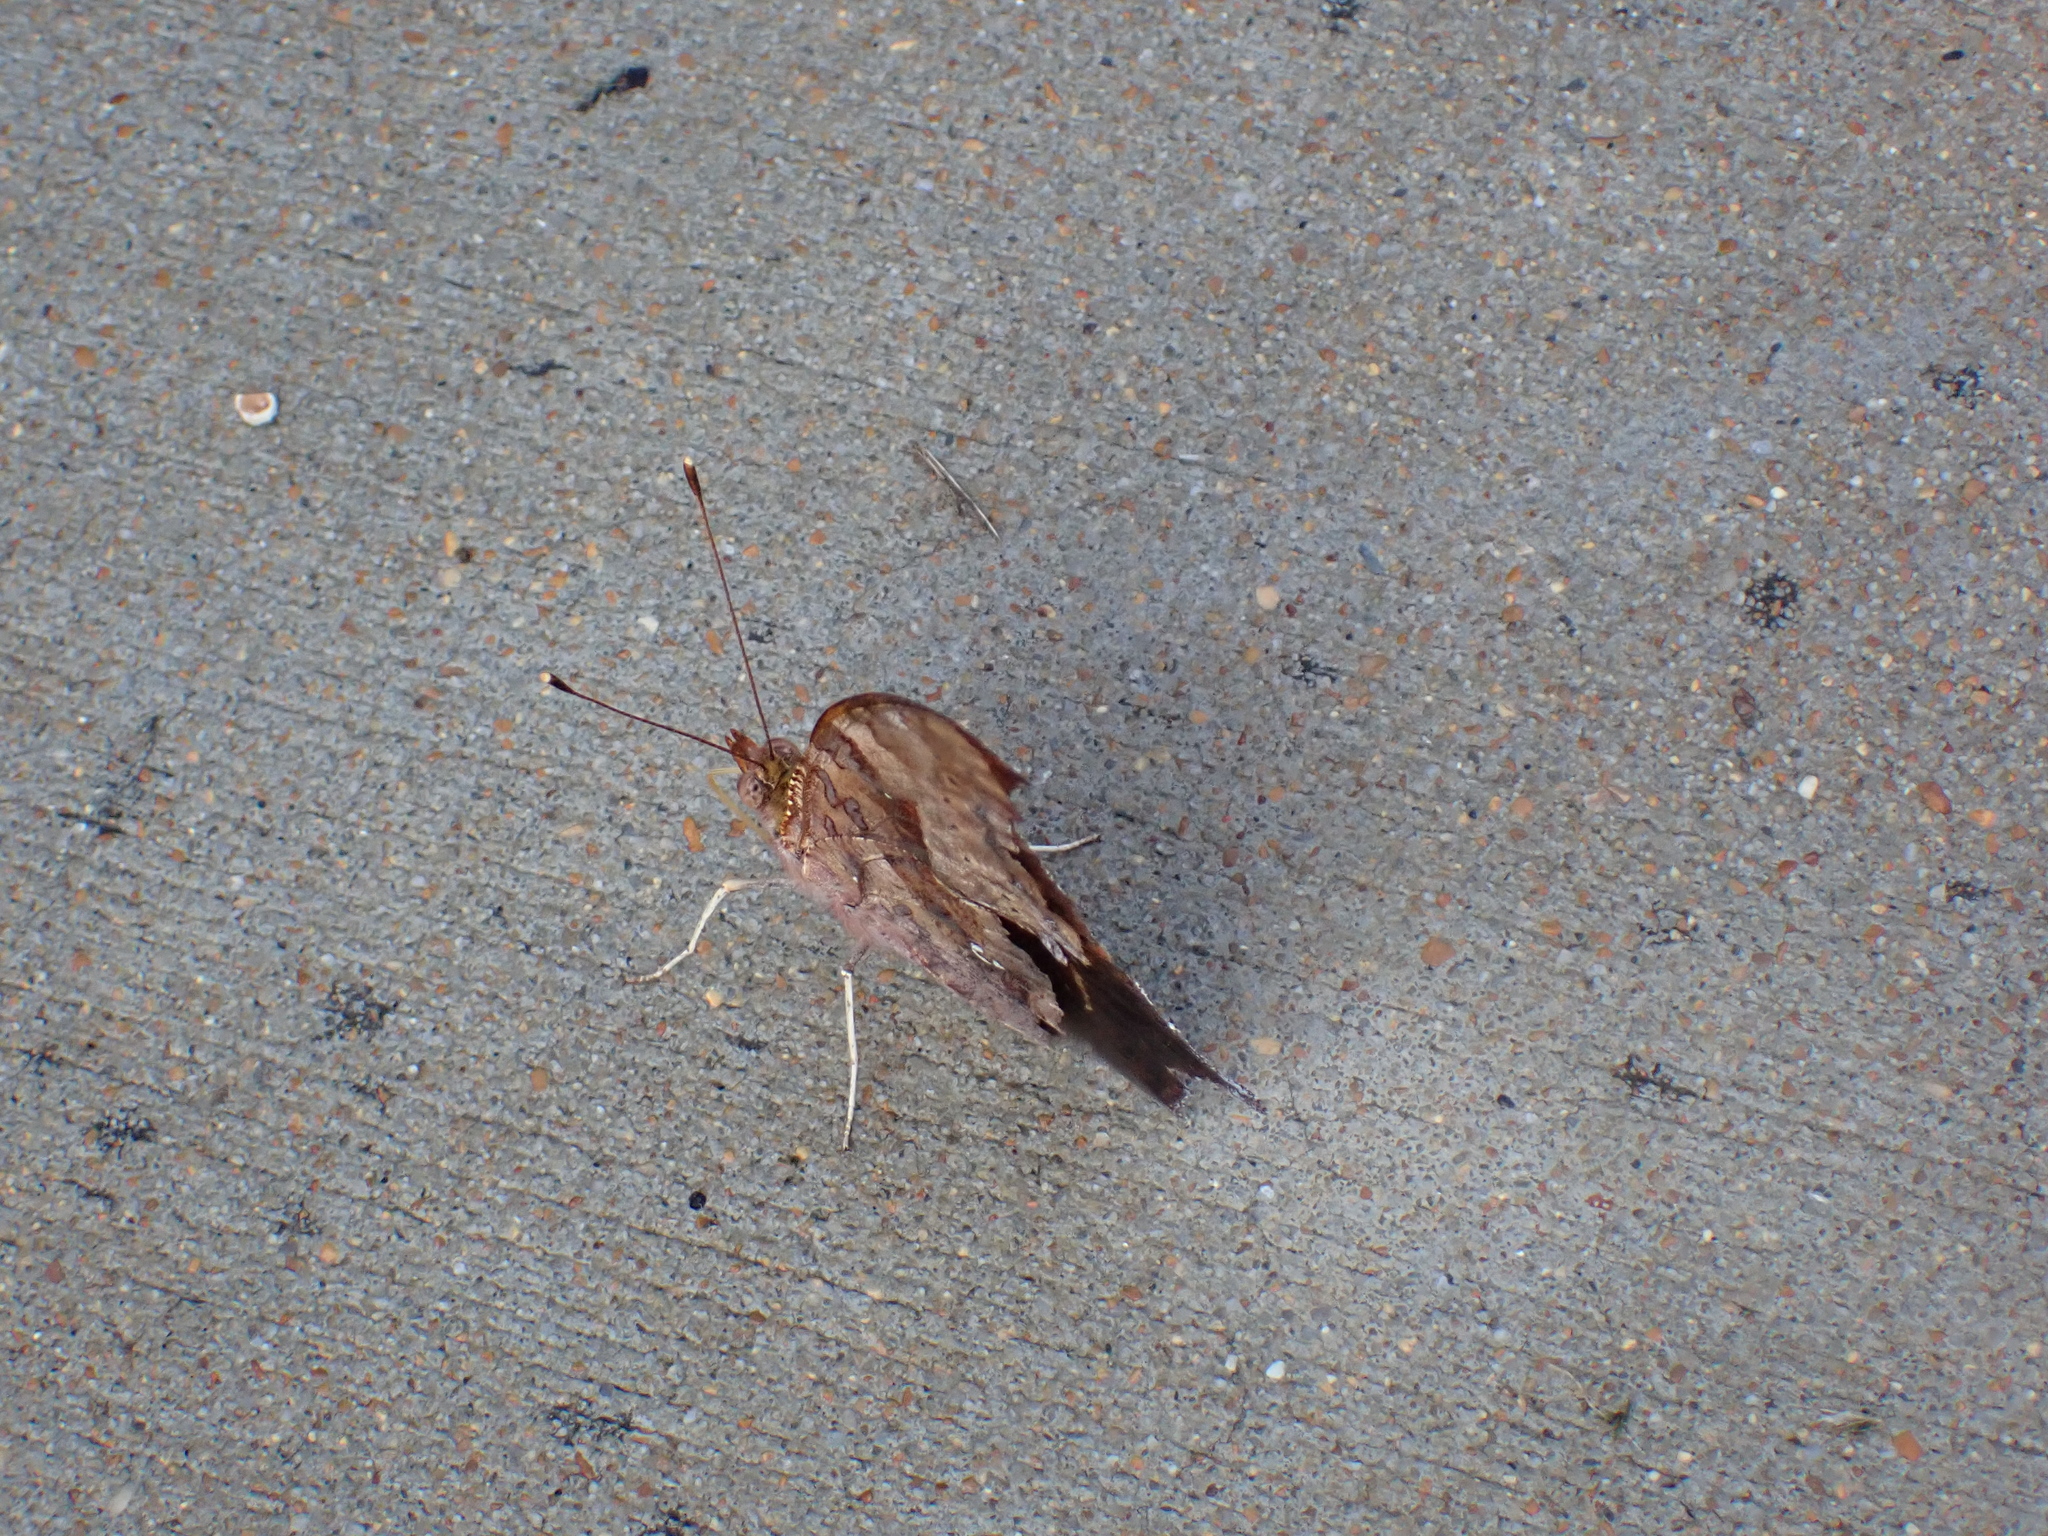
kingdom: Animalia
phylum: Arthropoda
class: Insecta
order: Lepidoptera
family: Nymphalidae
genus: Polygonia
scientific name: Polygonia interrogationis
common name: Question mark
